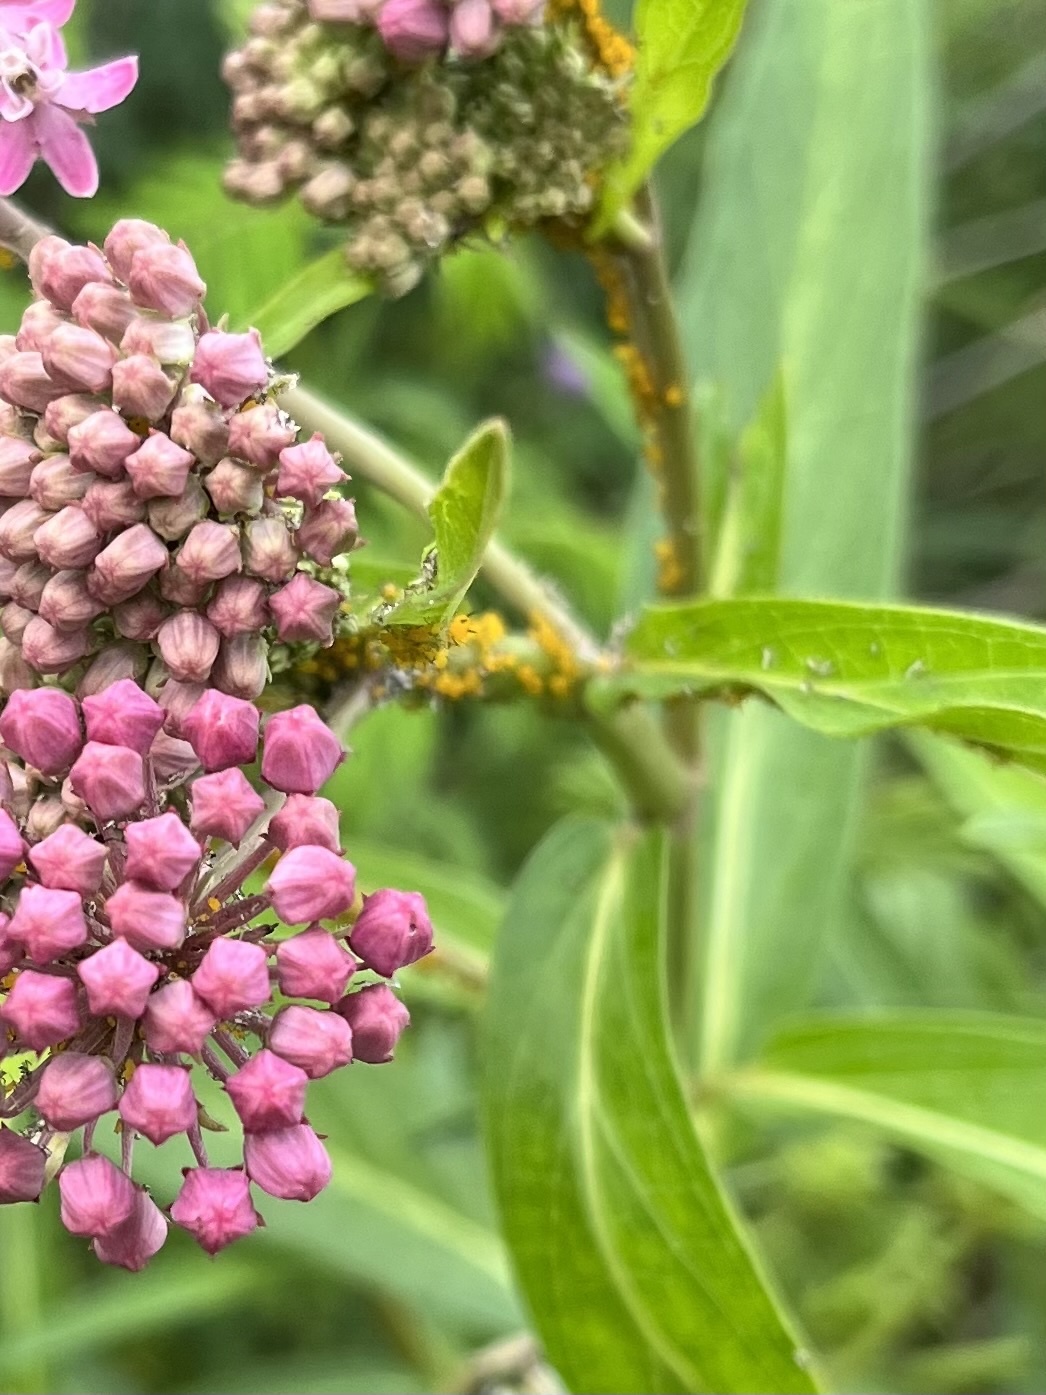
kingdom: Animalia
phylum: Arthropoda
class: Insecta
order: Hemiptera
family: Aphididae
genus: Aphis
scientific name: Aphis nerii
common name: Oleander aphid
